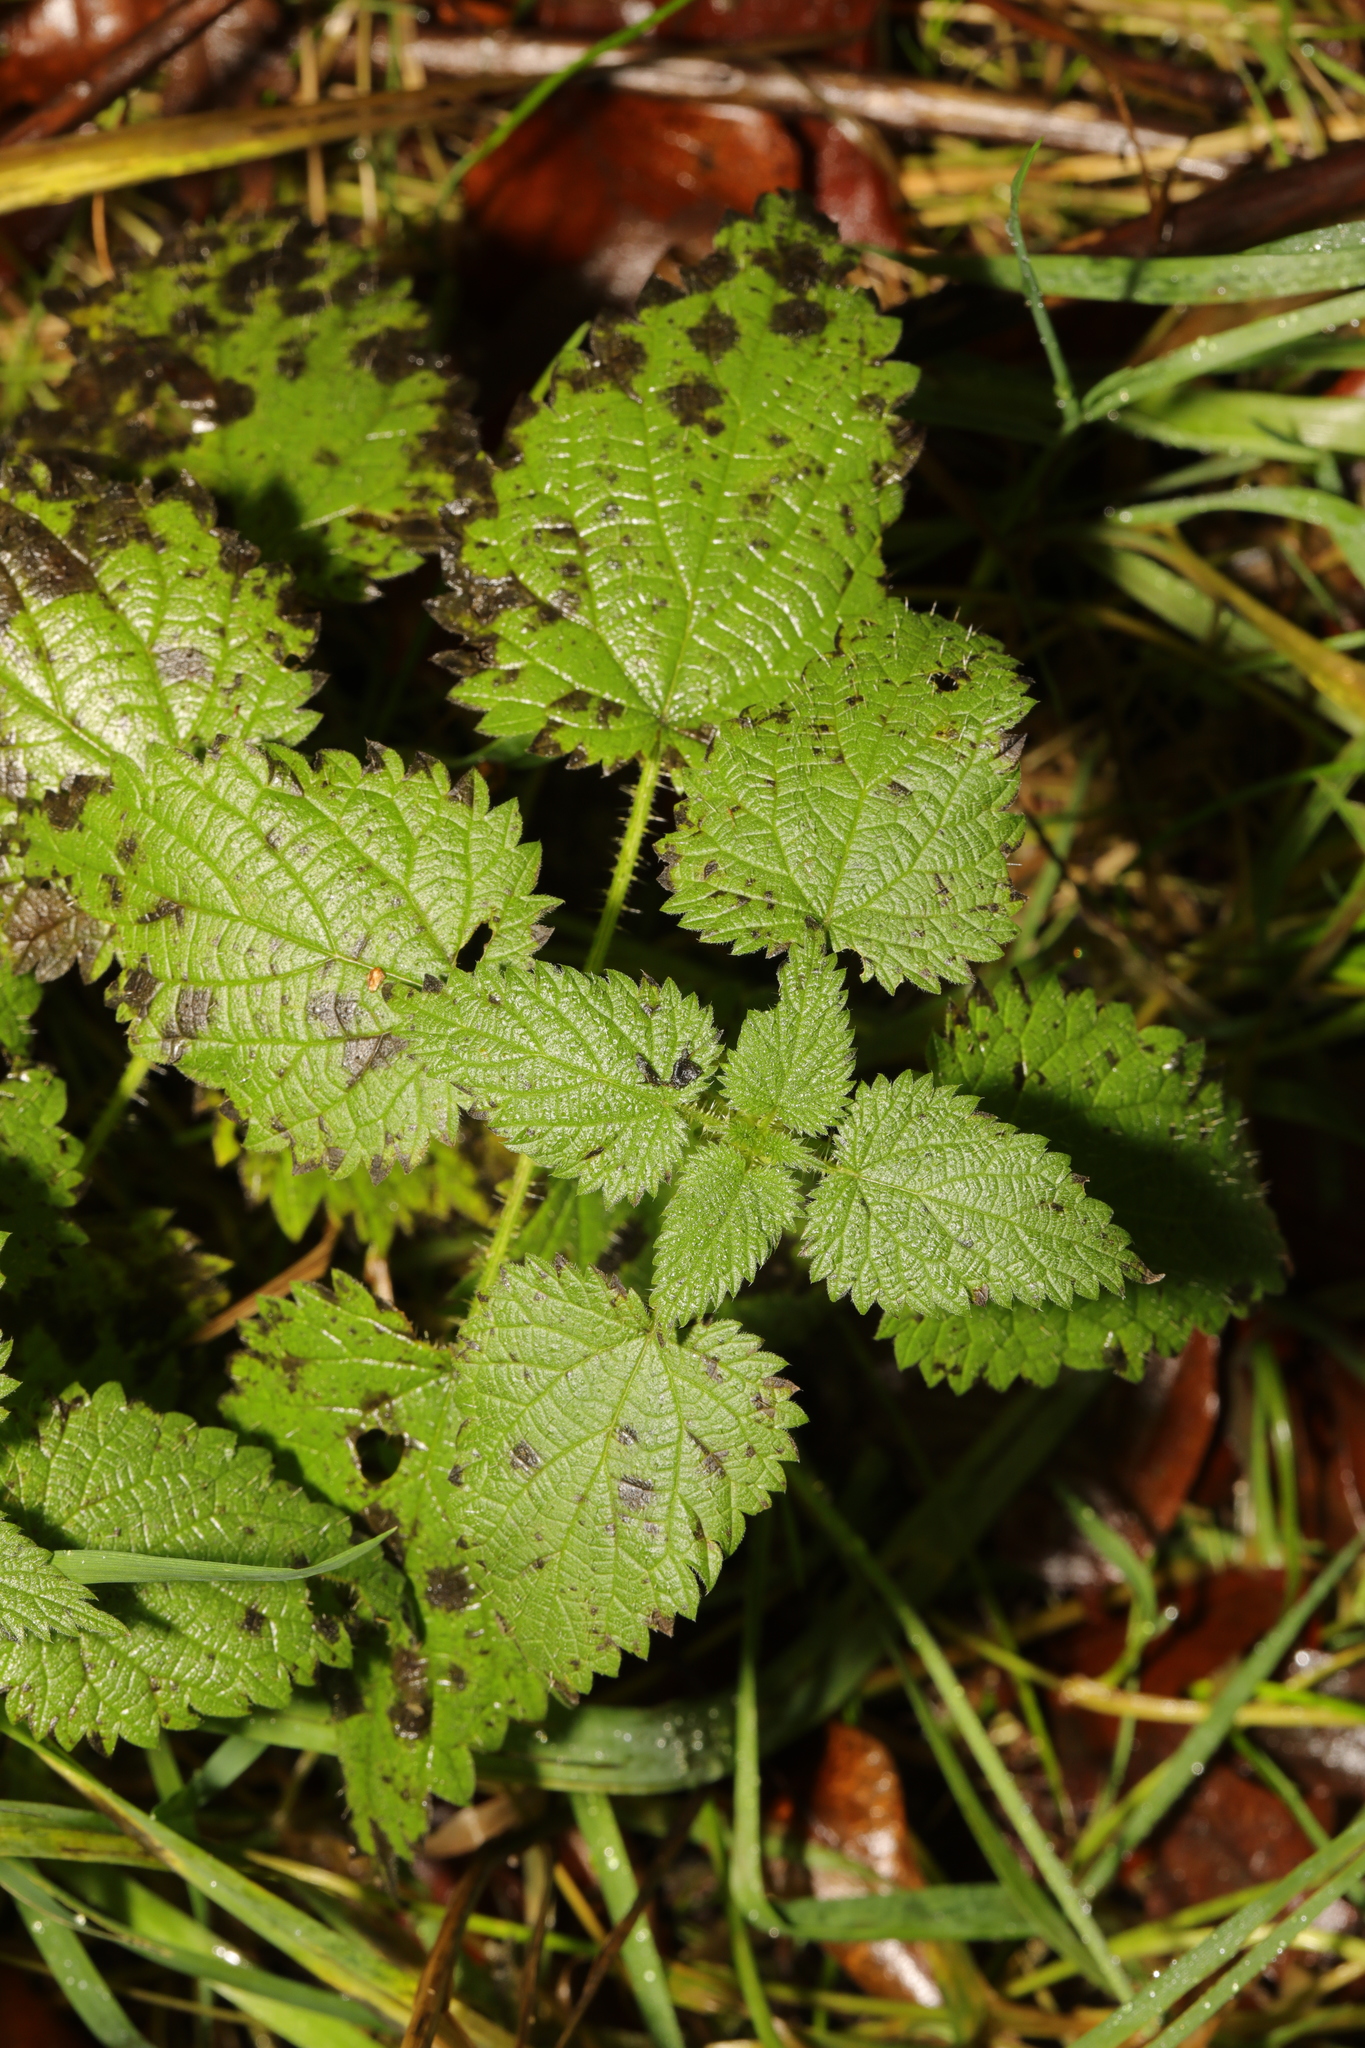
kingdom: Plantae
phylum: Tracheophyta
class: Magnoliopsida
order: Rosales
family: Urticaceae
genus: Urtica
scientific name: Urtica dioica
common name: Common nettle
